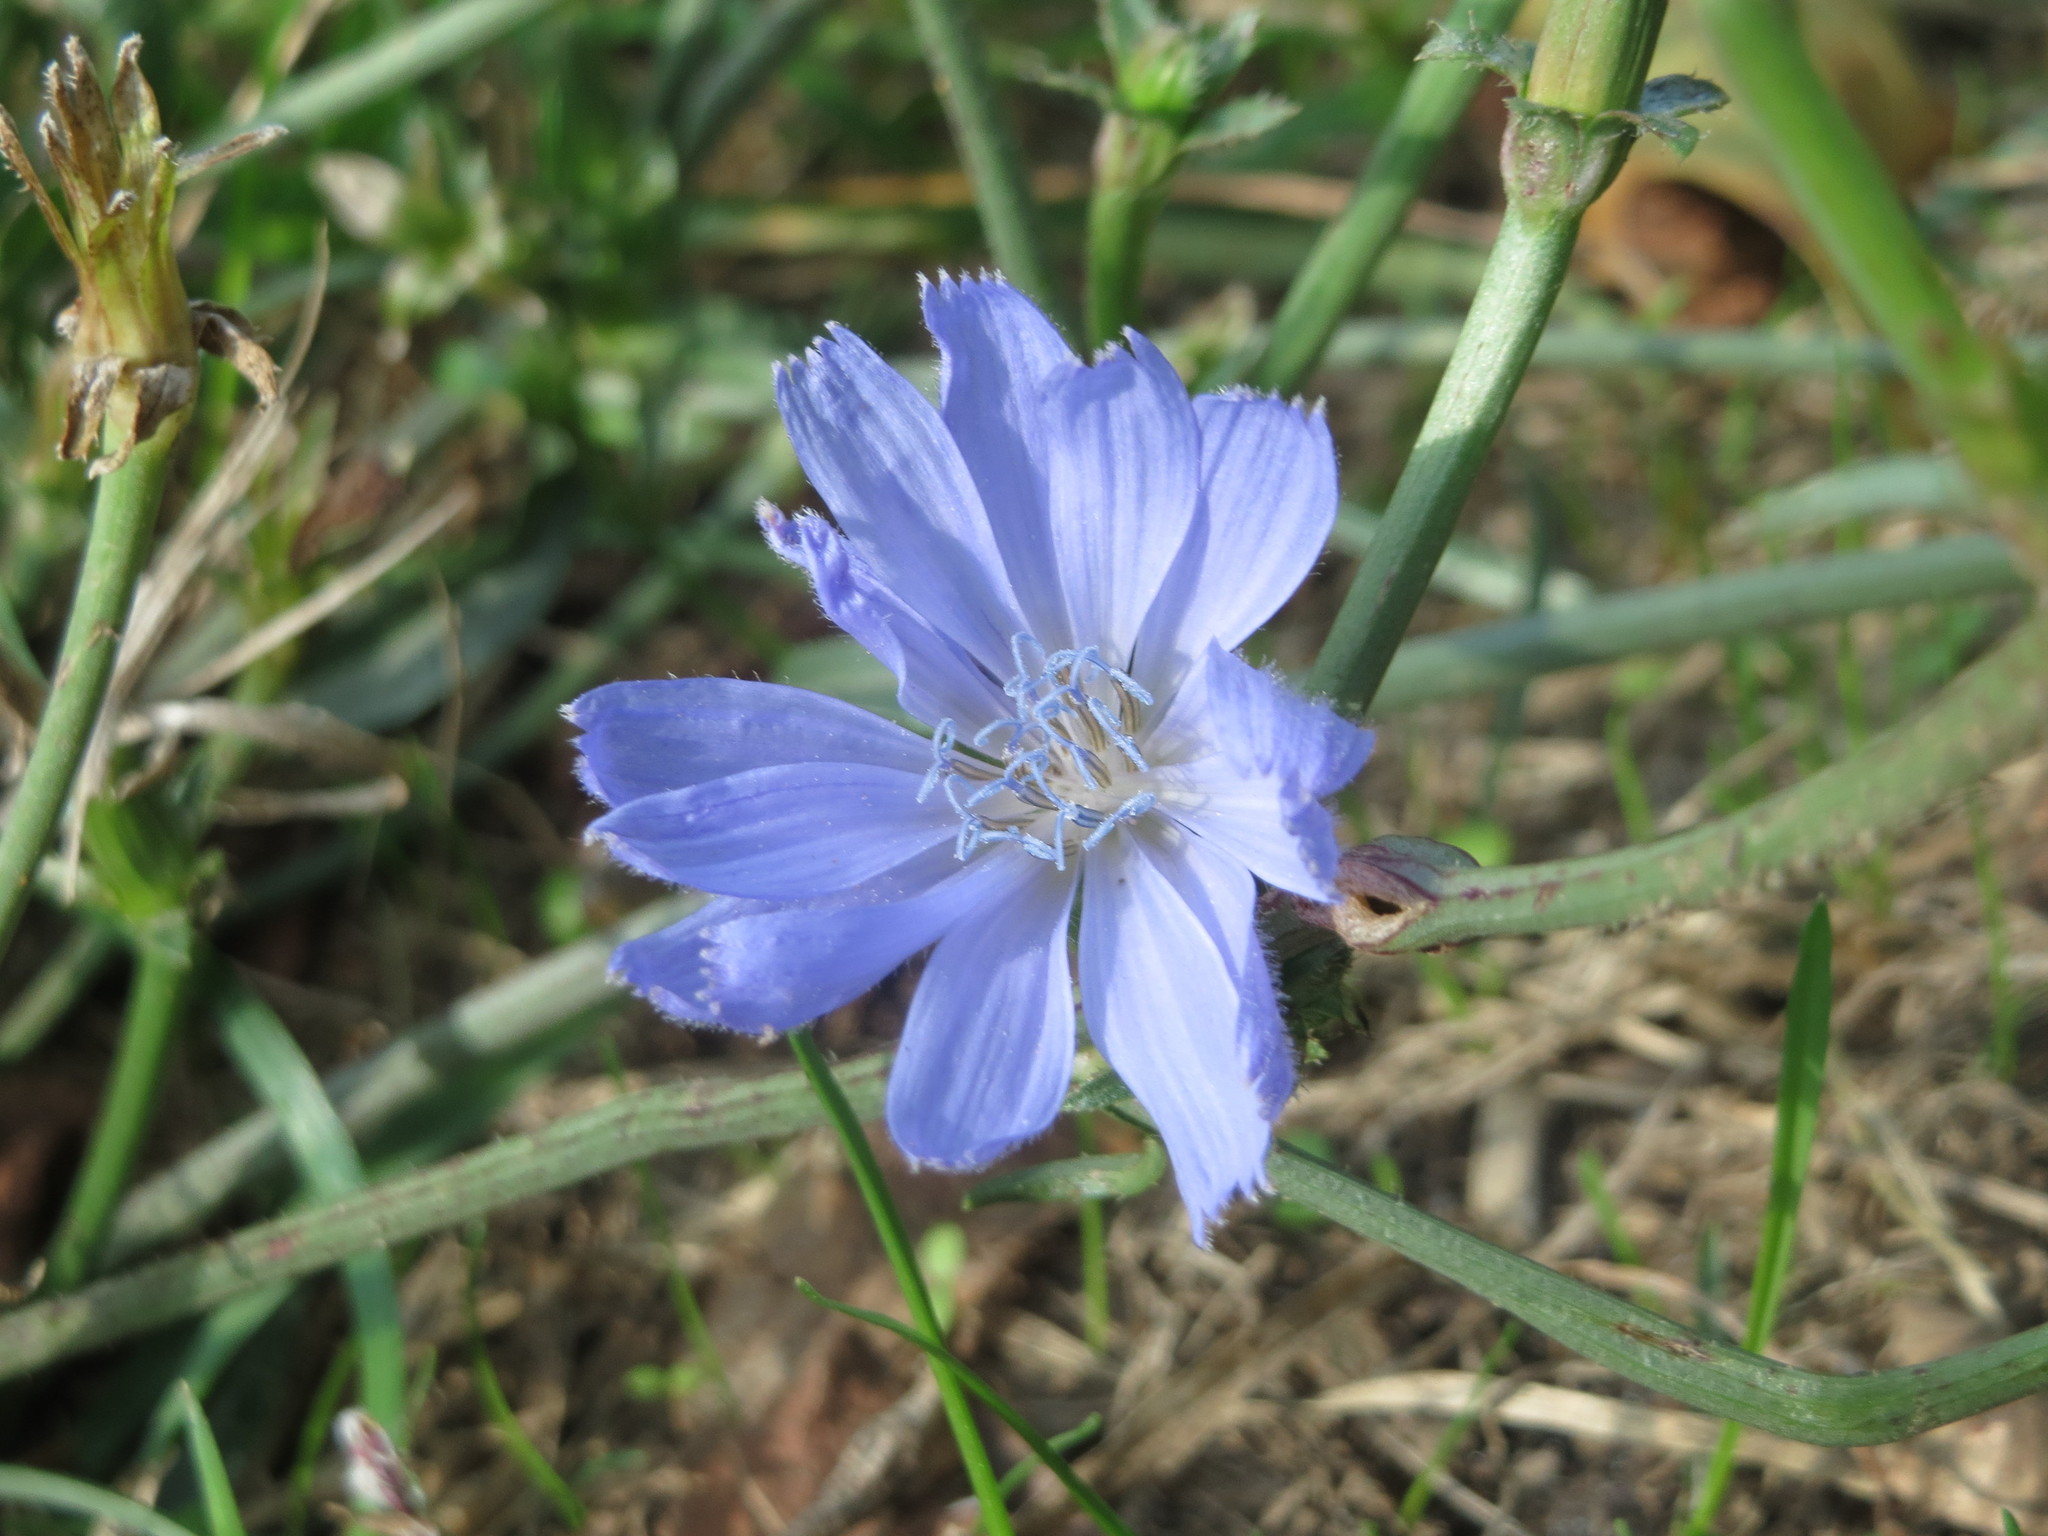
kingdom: Plantae
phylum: Tracheophyta
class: Magnoliopsida
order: Asterales
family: Asteraceae
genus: Cichorium
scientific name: Cichorium intybus
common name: Chicory
